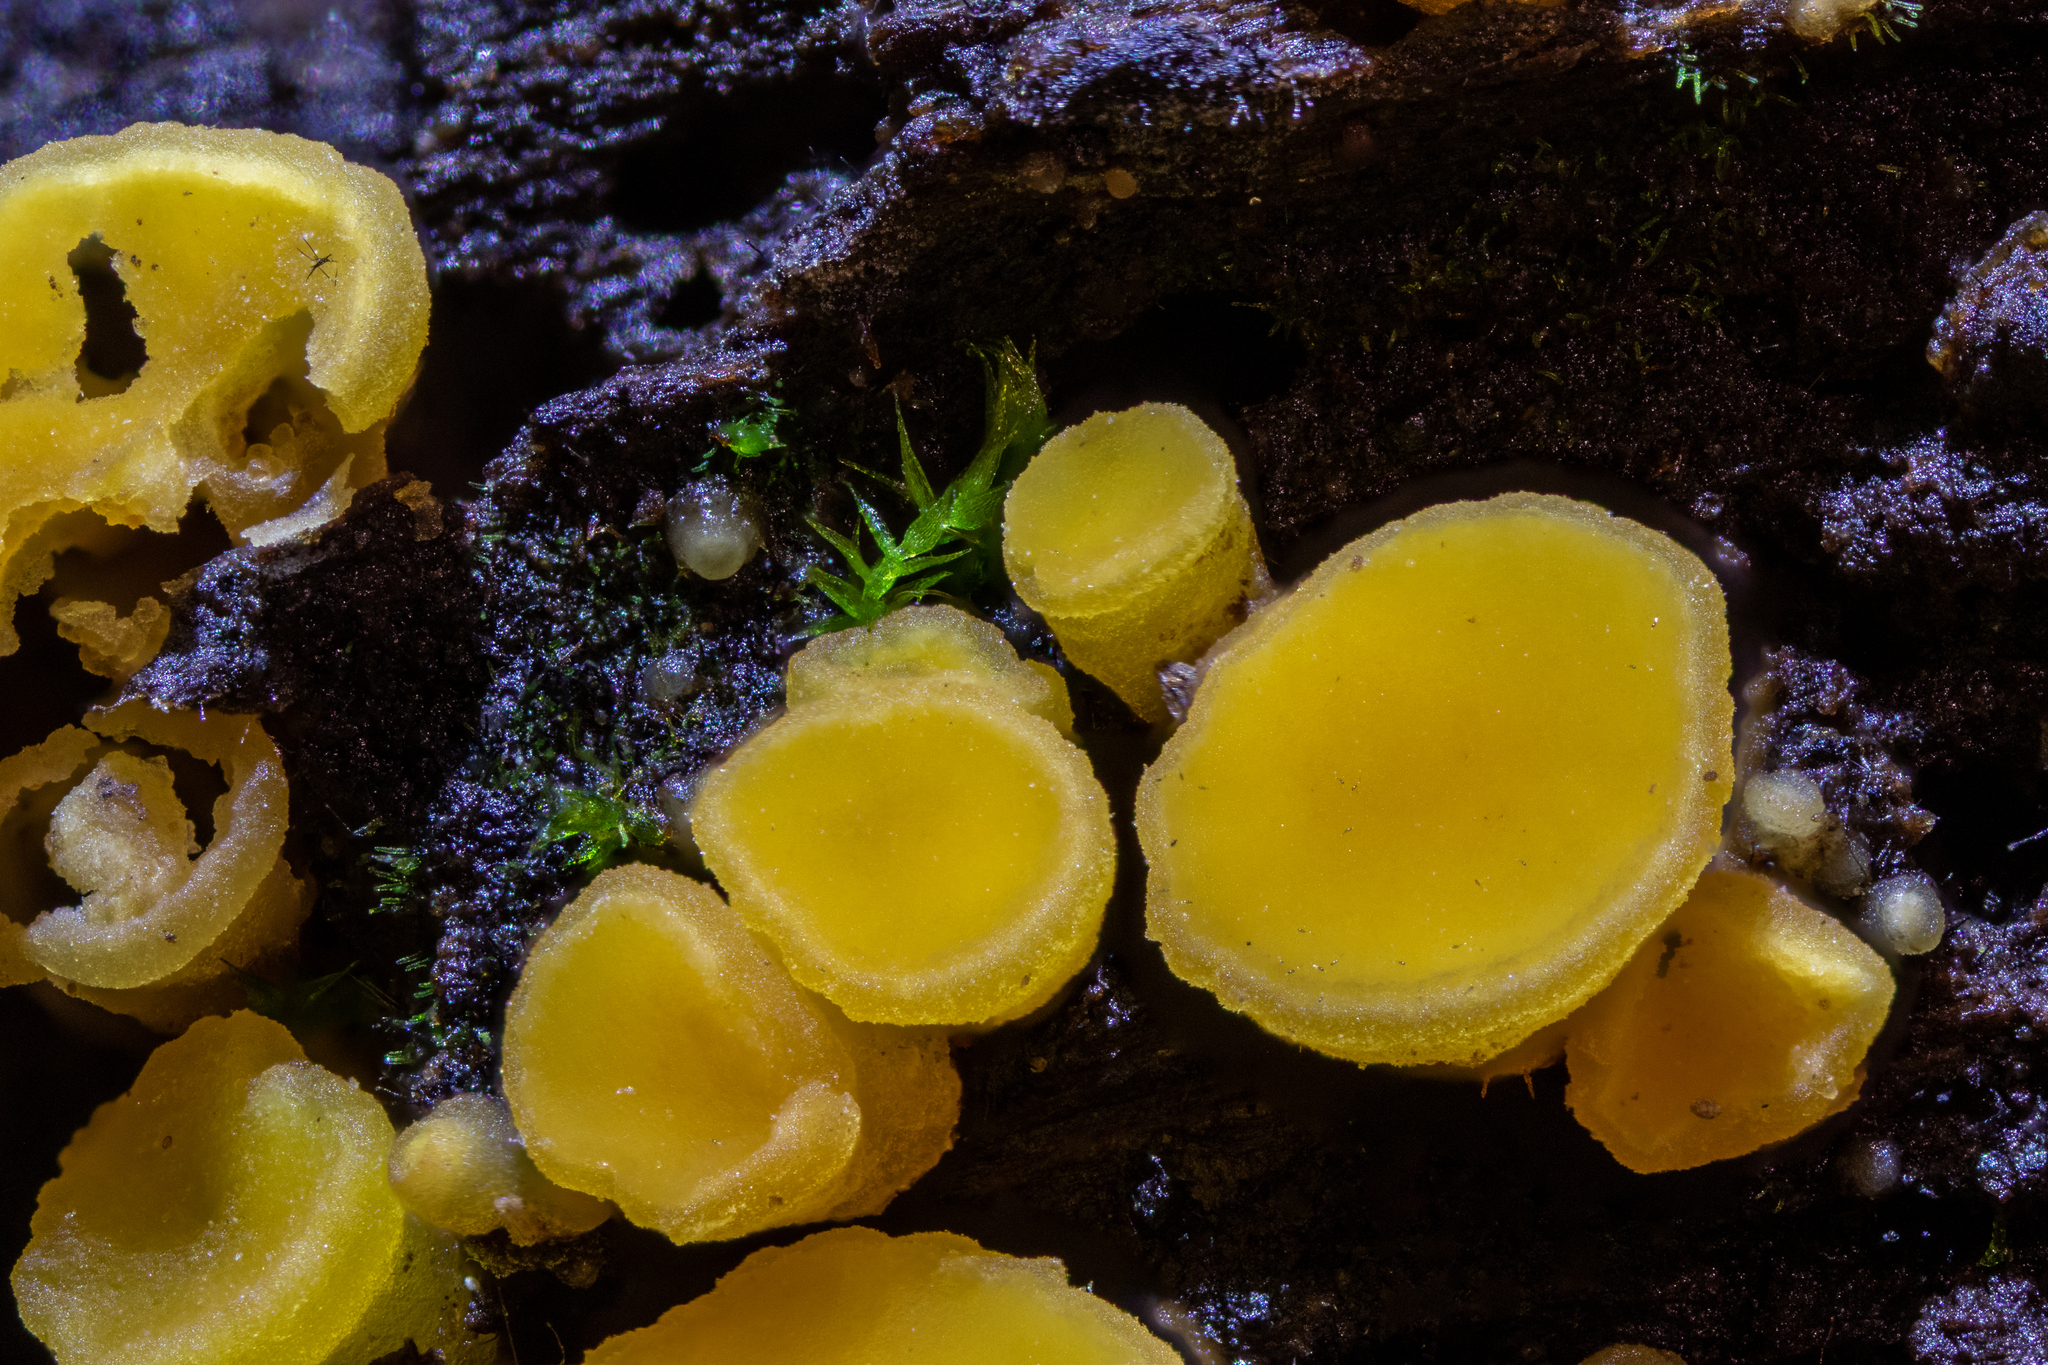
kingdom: Fungi
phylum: Ascomycota
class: Leotiomycetes
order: Helotiales
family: Helotiaceae
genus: Hymenoscyphus
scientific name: Hymenoscyphus monticola
